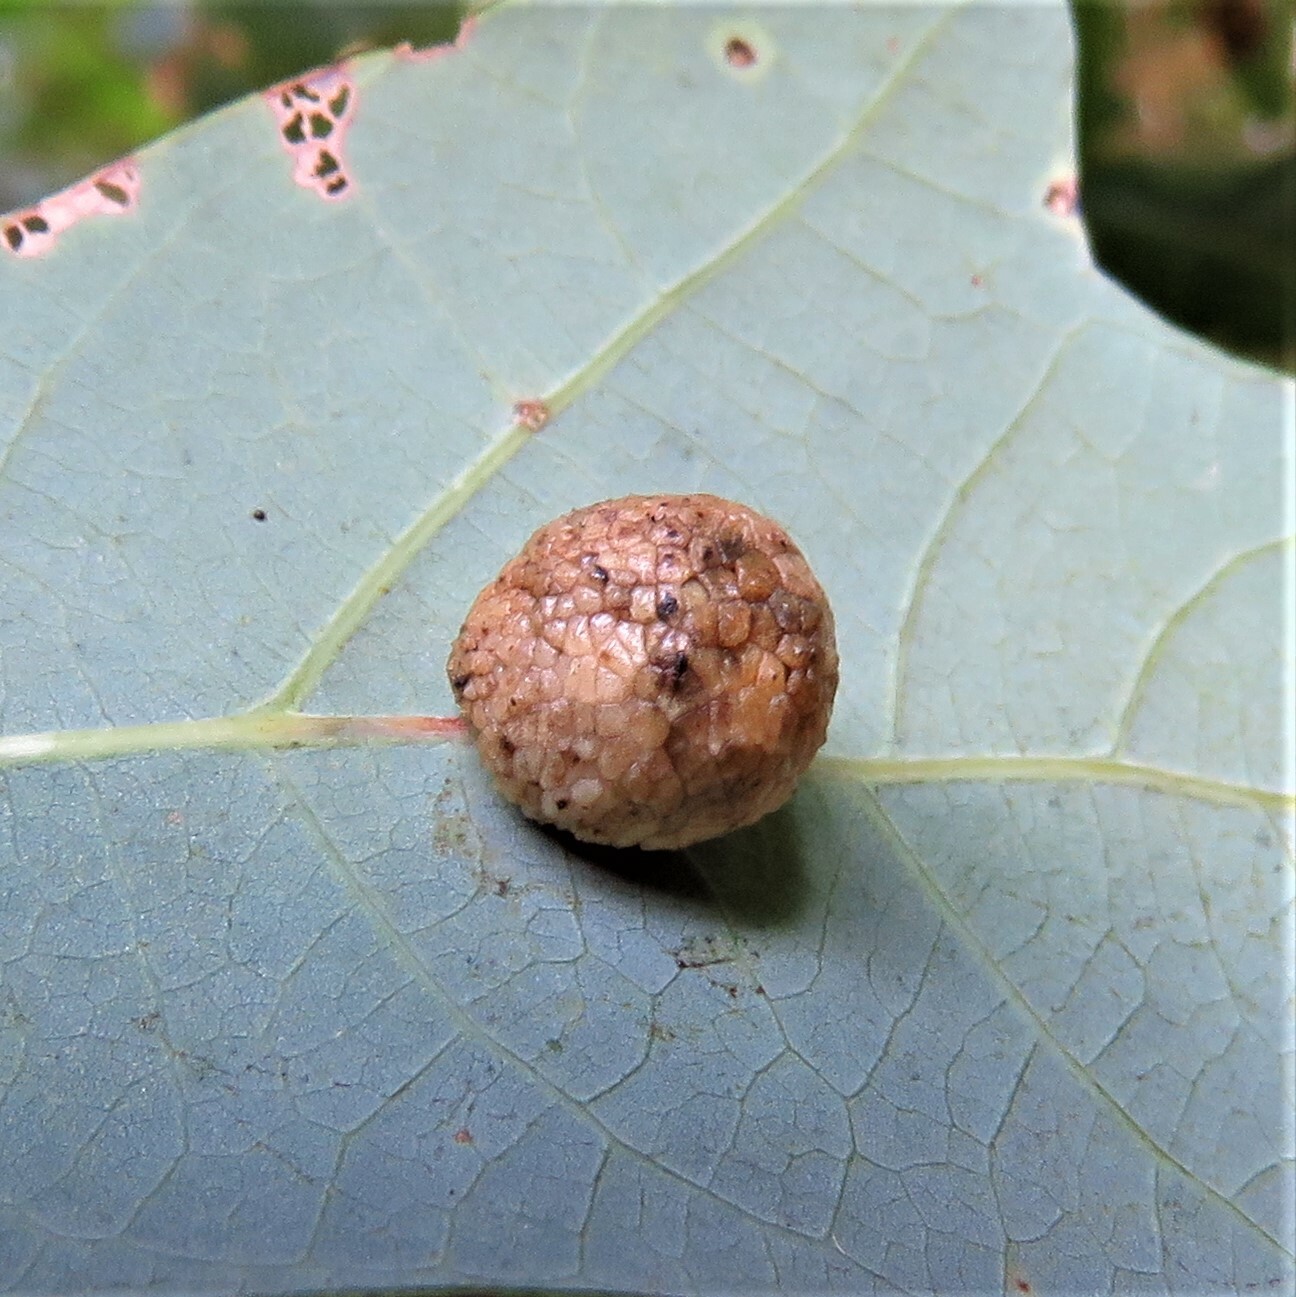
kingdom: Animalia
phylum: Arthropoda
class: Insecta
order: Hymenoptera
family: Cynipidae
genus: Acraspis
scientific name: Acraspis
